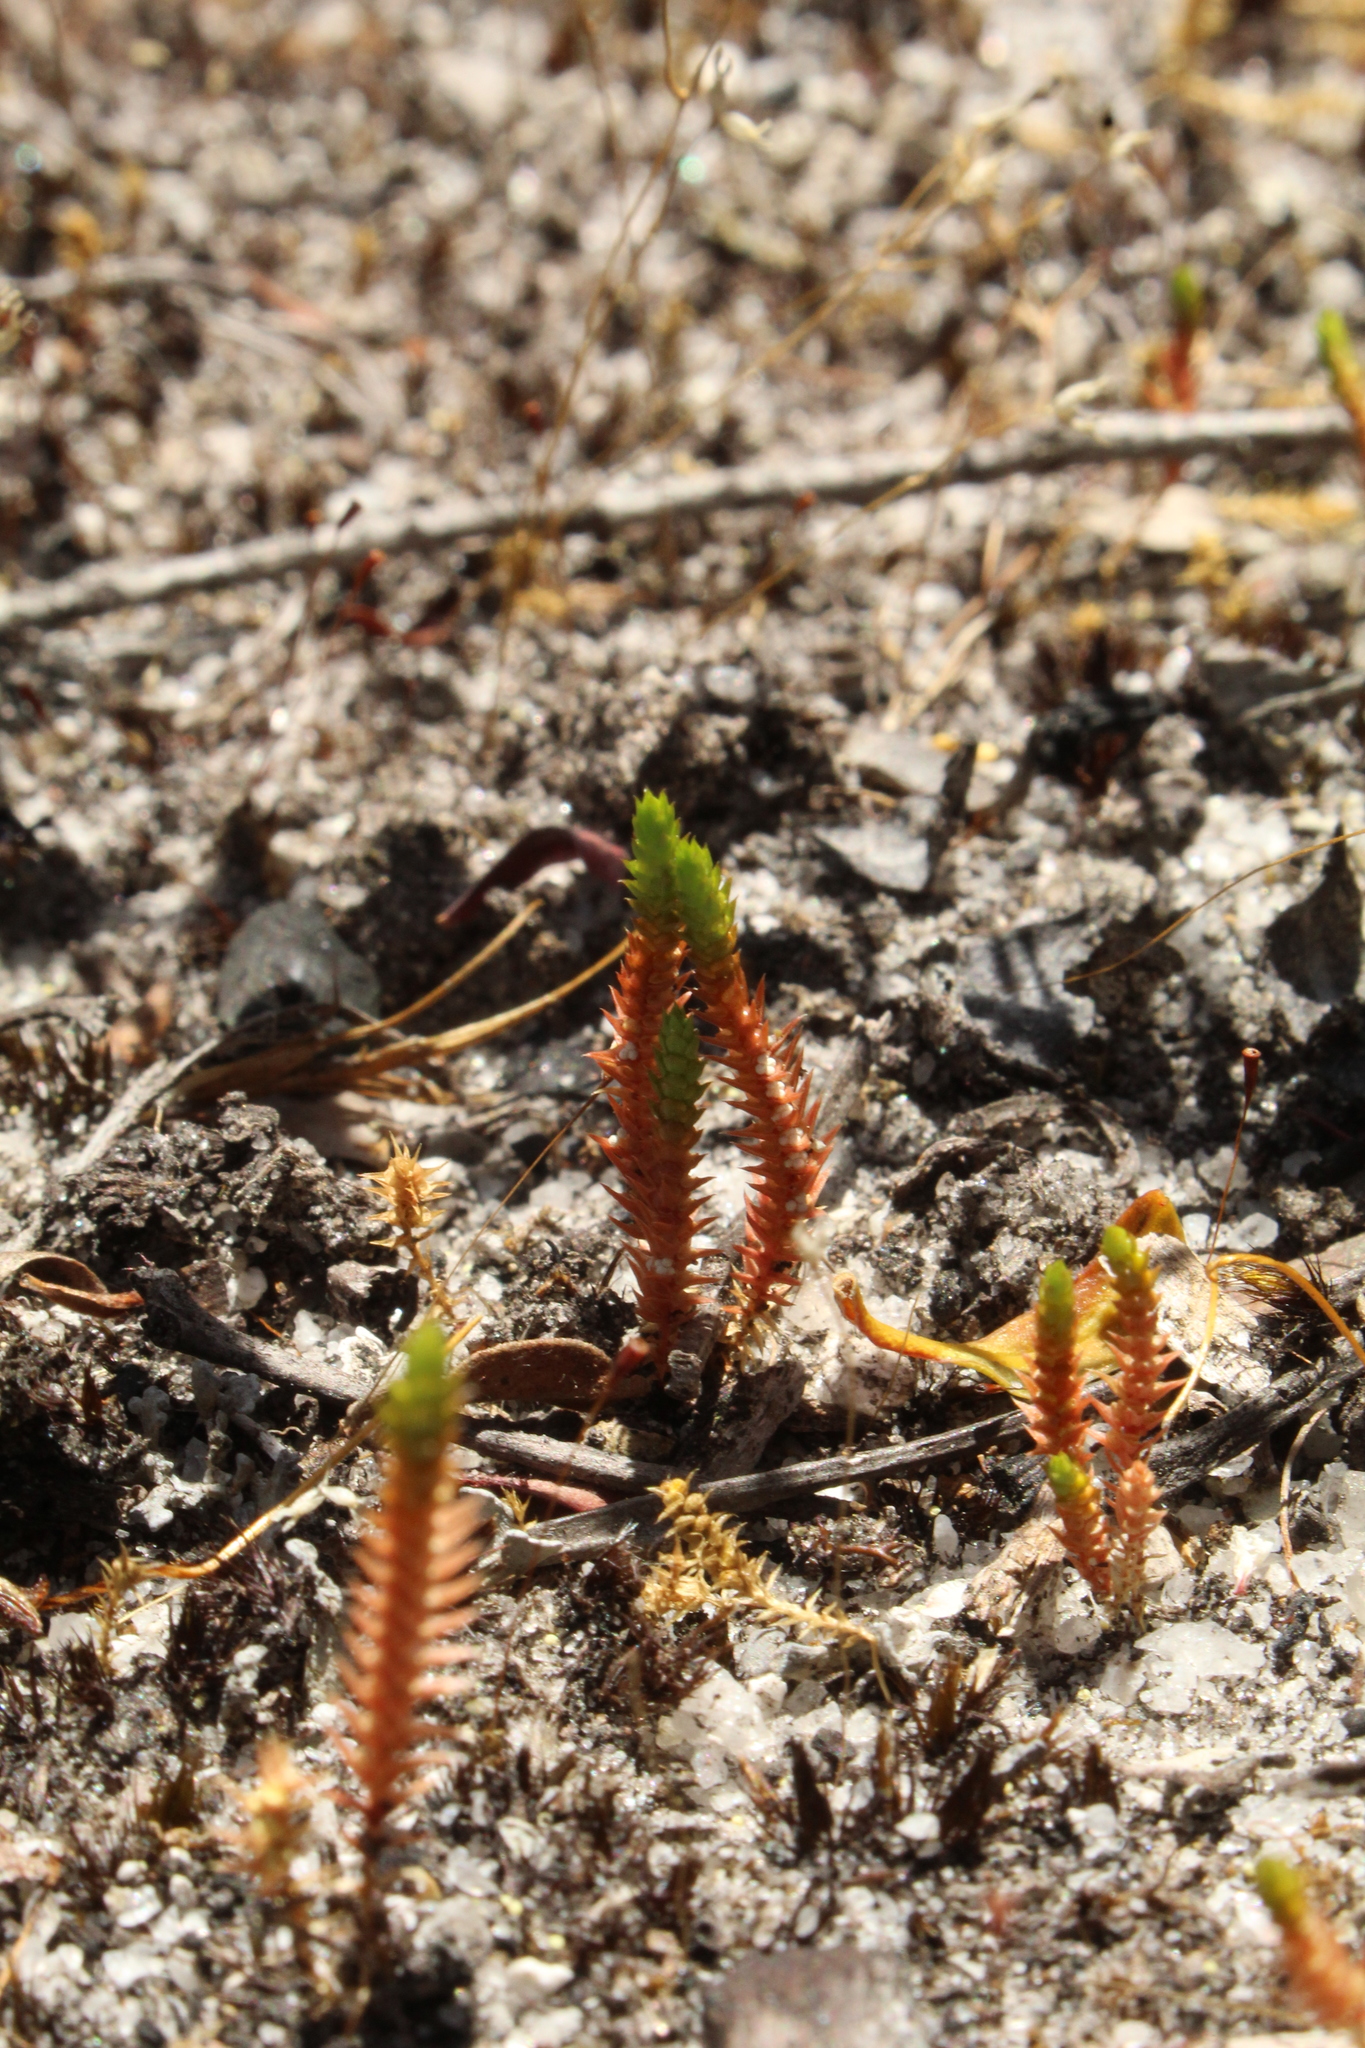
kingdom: Plantae
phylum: Tracheophyta
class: Lycopodiopsida
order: Selaginellales
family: Selaginellaceae
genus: Selaginella
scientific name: Selaginella gracillima
